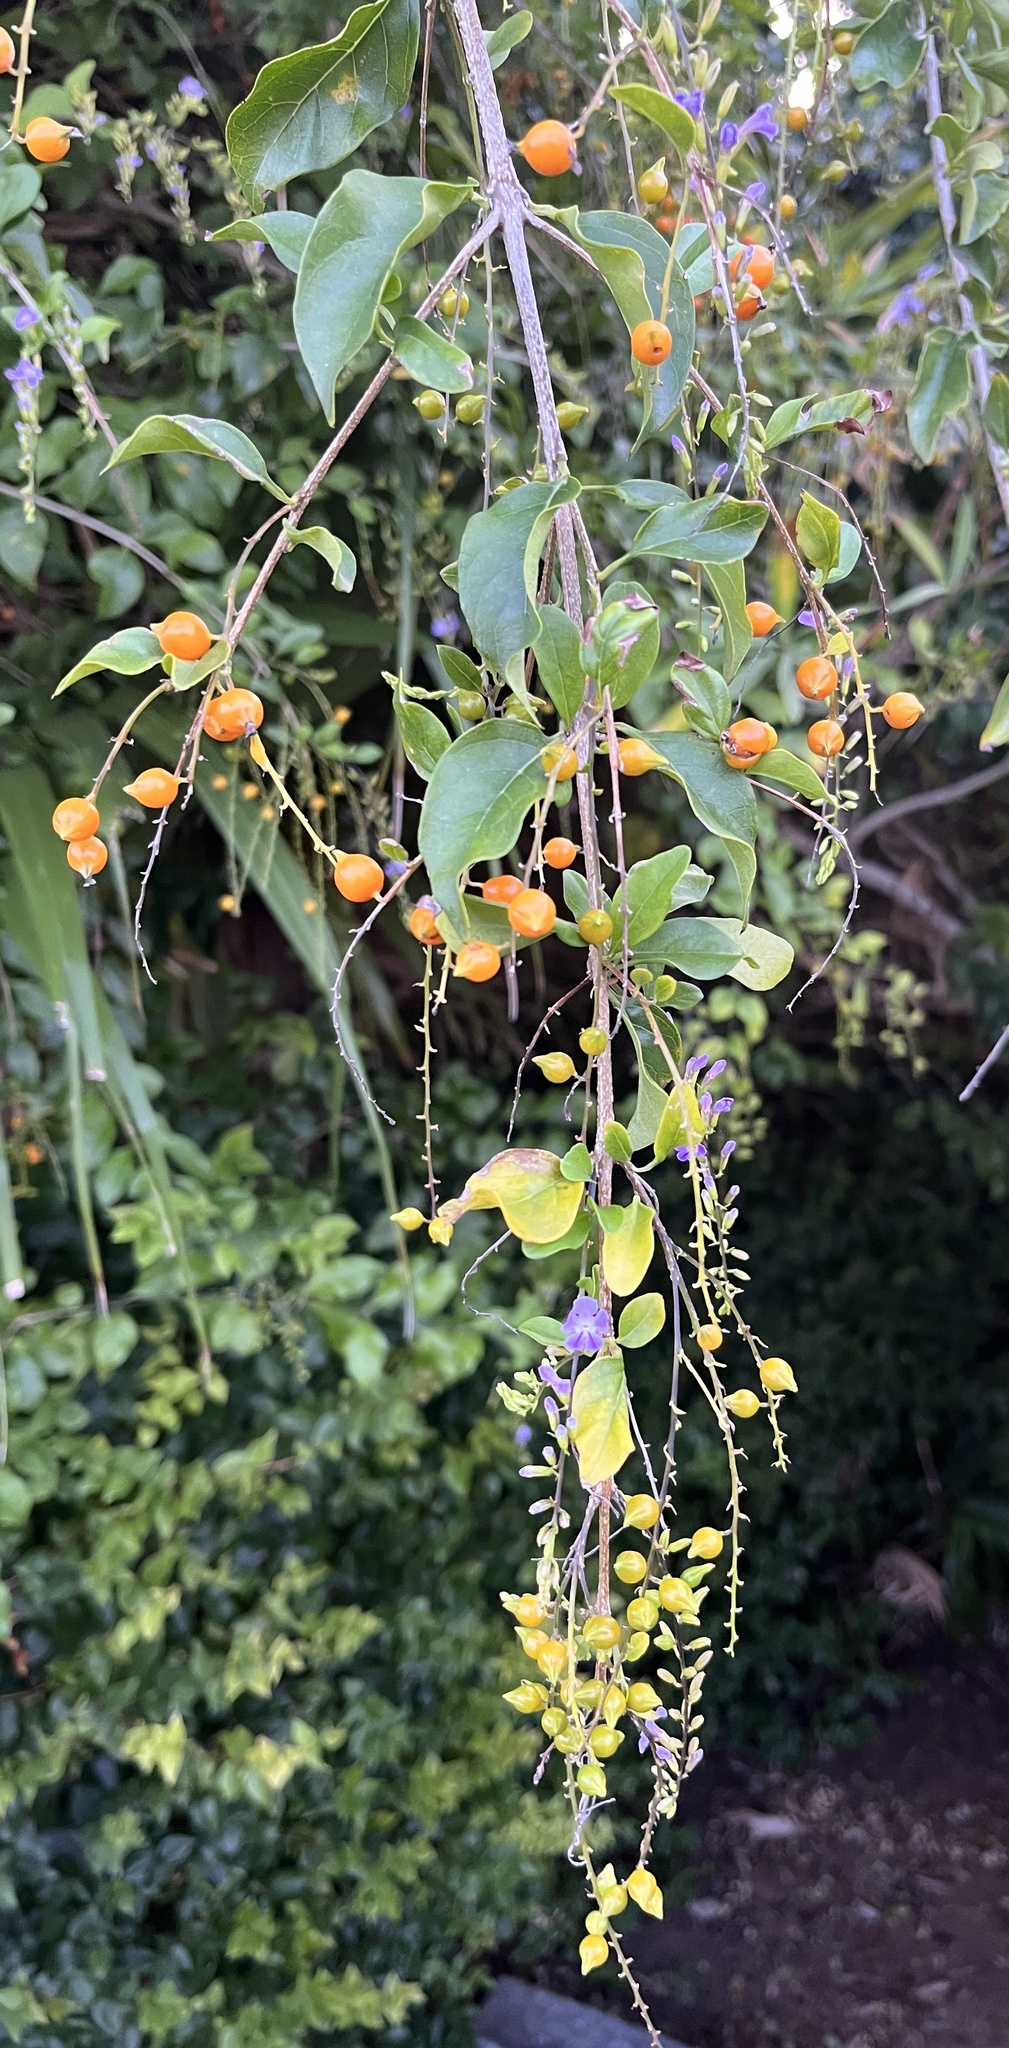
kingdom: Plantae
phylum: Tracheophyta
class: Magnoliopsida
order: Lamiales
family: Verbenaceae
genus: Duranta
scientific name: Duranta erecta
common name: Golden dewdrops
